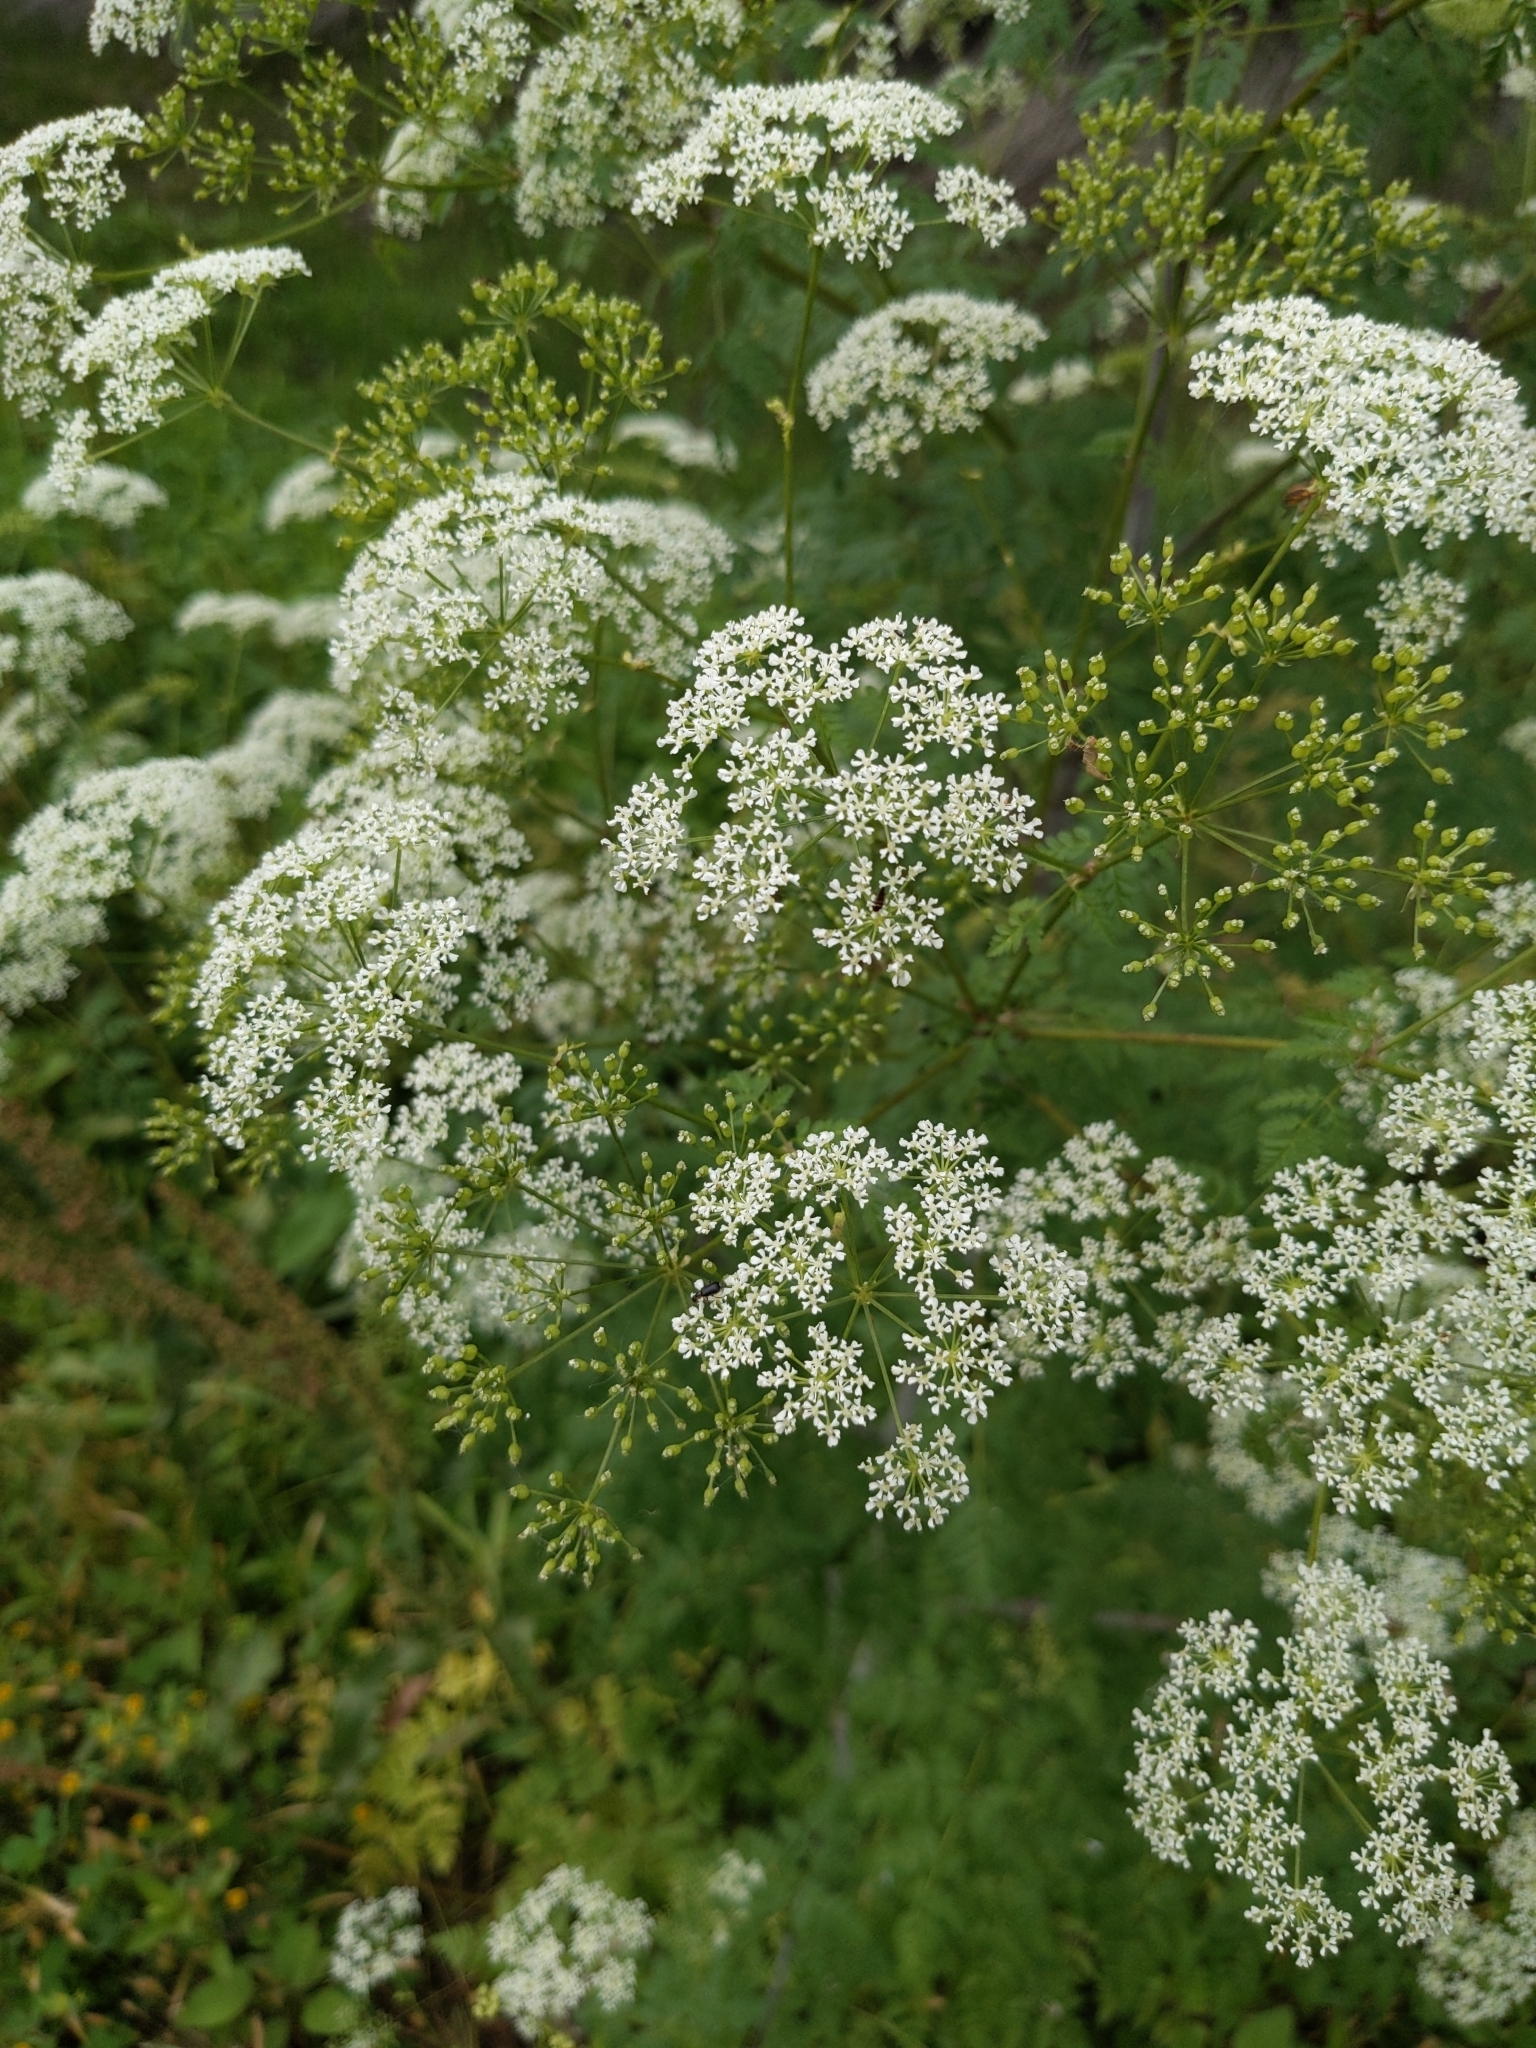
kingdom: Plantae
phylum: Tracheophyta
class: Magnoliopsida
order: Apiales
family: Apiaceae
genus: Conium
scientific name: Conium maculatum
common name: Hemlock
